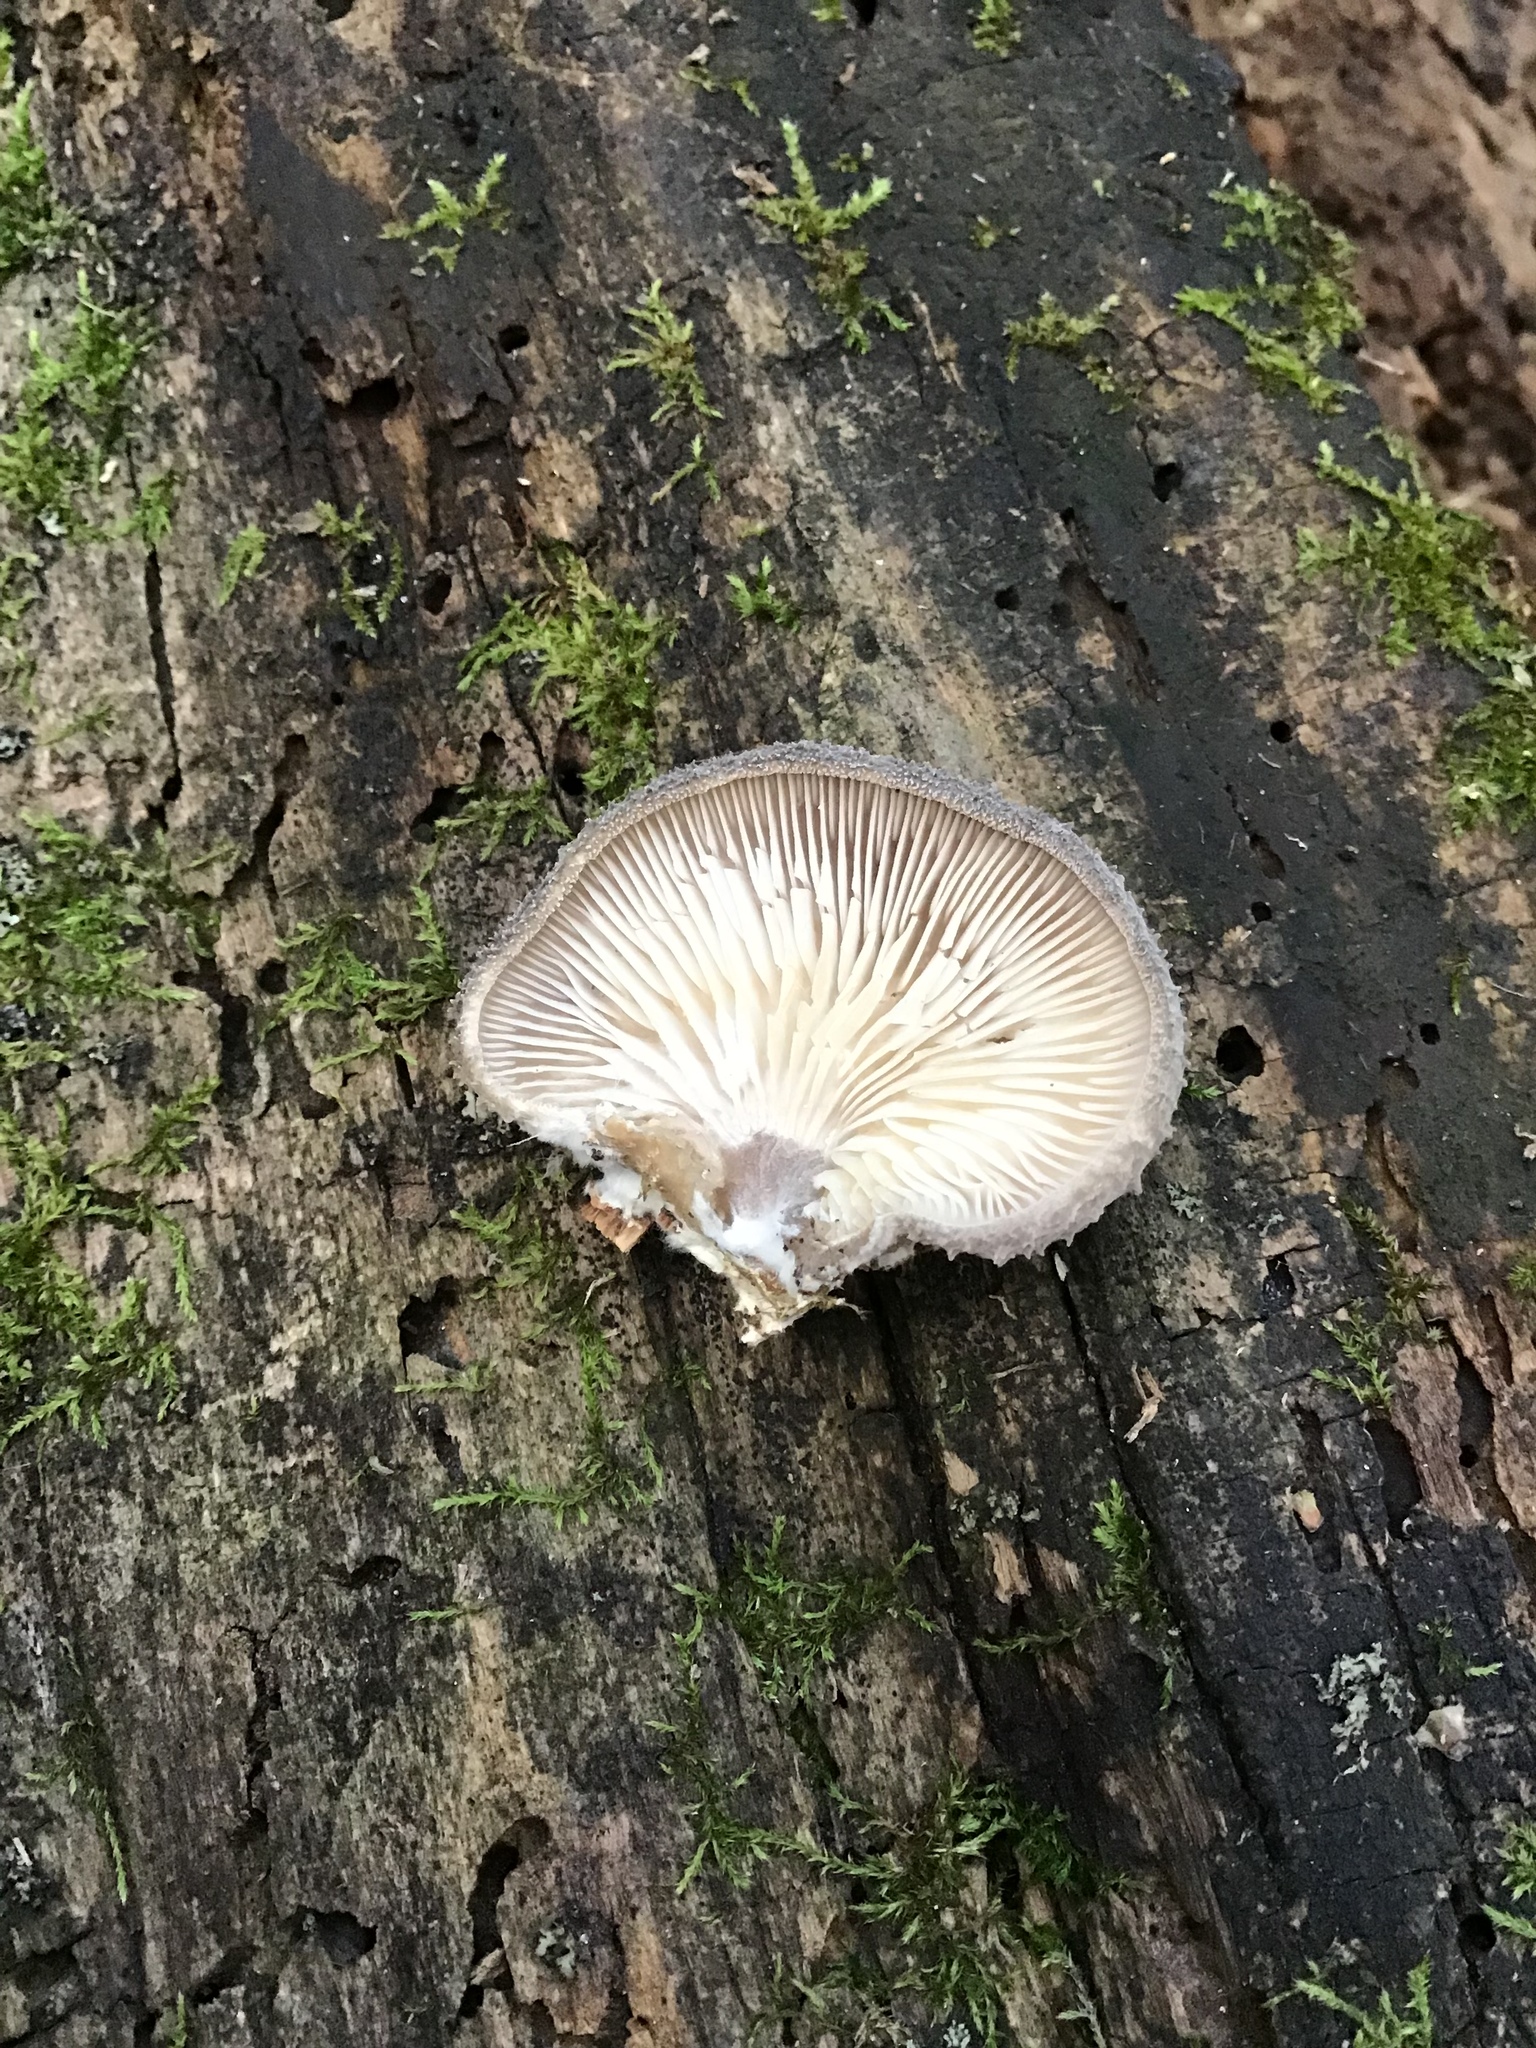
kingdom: Fungi
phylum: Basidiomycota
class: Agaricomycetes
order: Agaricales
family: Pleurotaceae
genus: Hohenbuehelia
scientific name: Hohenbuehelia mastrucata
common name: Woolly oyster
